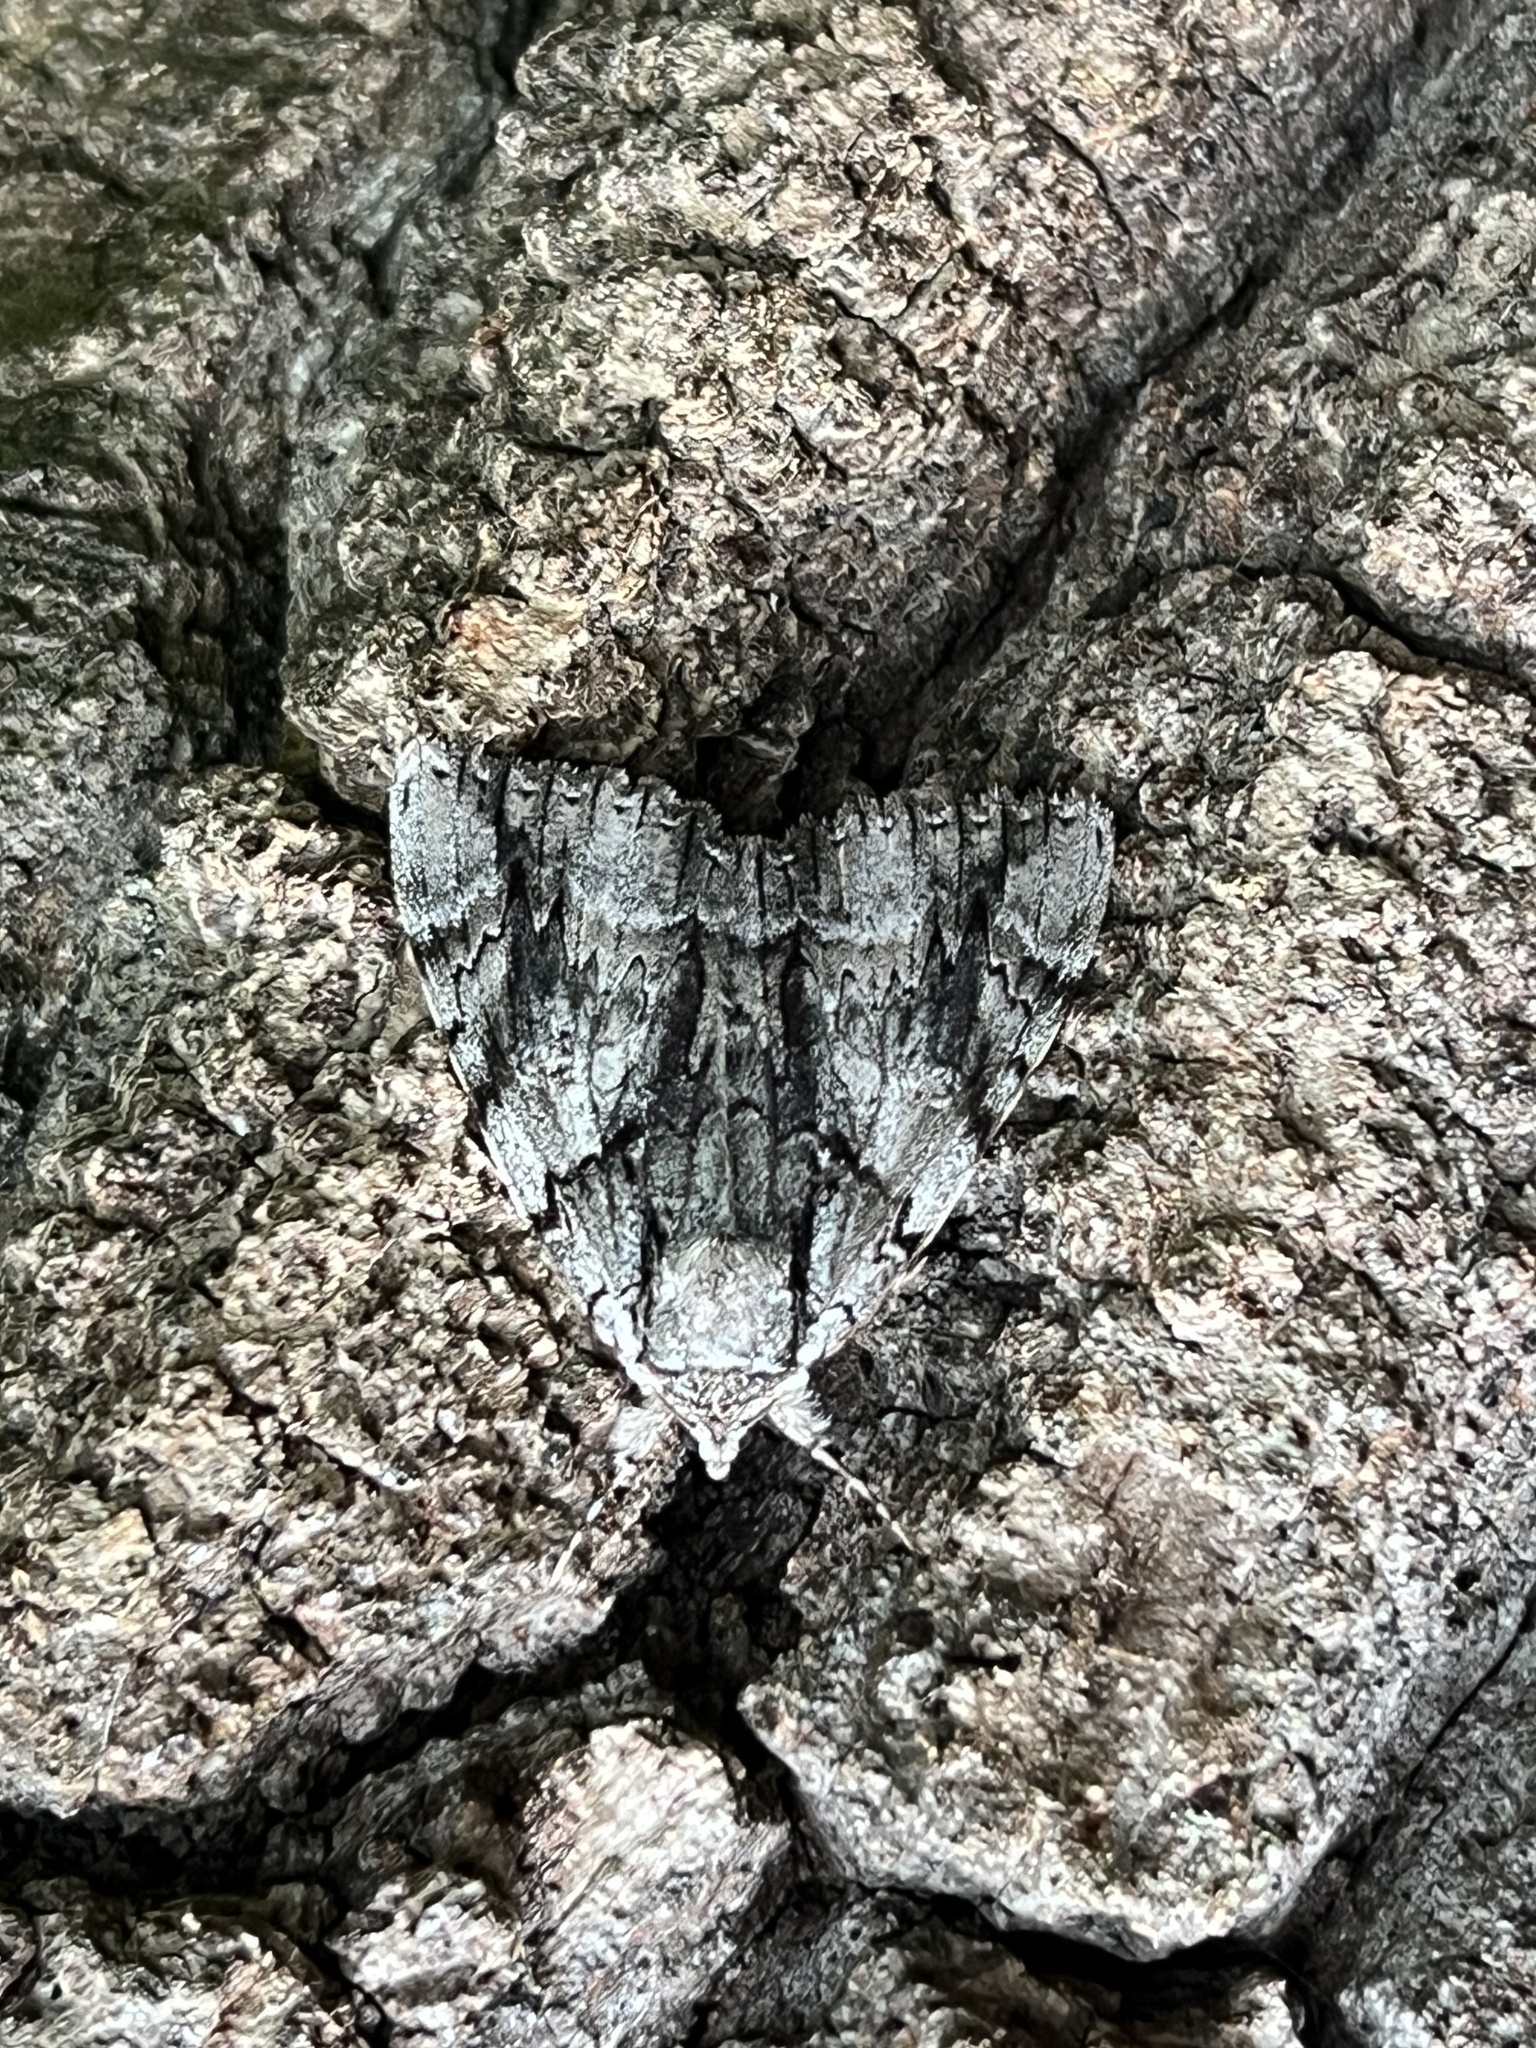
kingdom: Animalia
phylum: Arthropoda
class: Insecta
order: Lepidoptera
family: Erebidae
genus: Catocala
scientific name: Catocala vidua
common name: The widow
